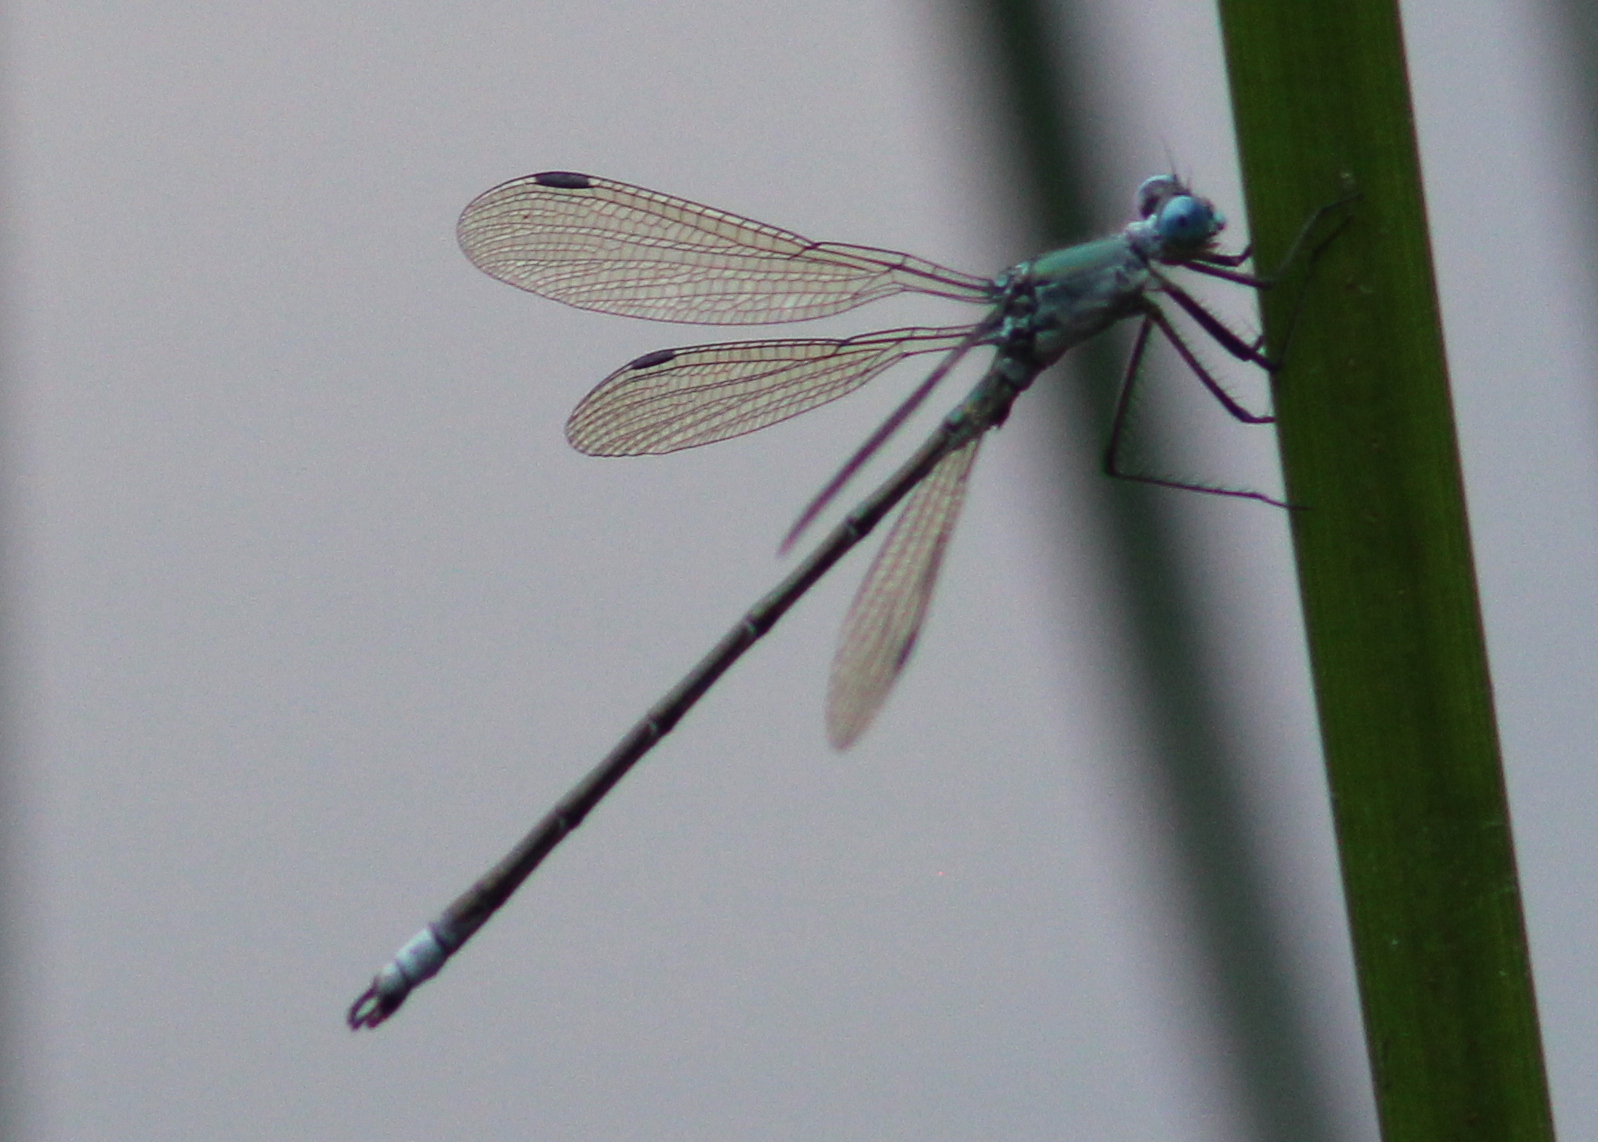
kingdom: Animalia
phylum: Arthropoda
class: Insecta
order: Odonata
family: Lestidae
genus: Lestes
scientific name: Lestes eurinus
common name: Amber-winged spreadwing
